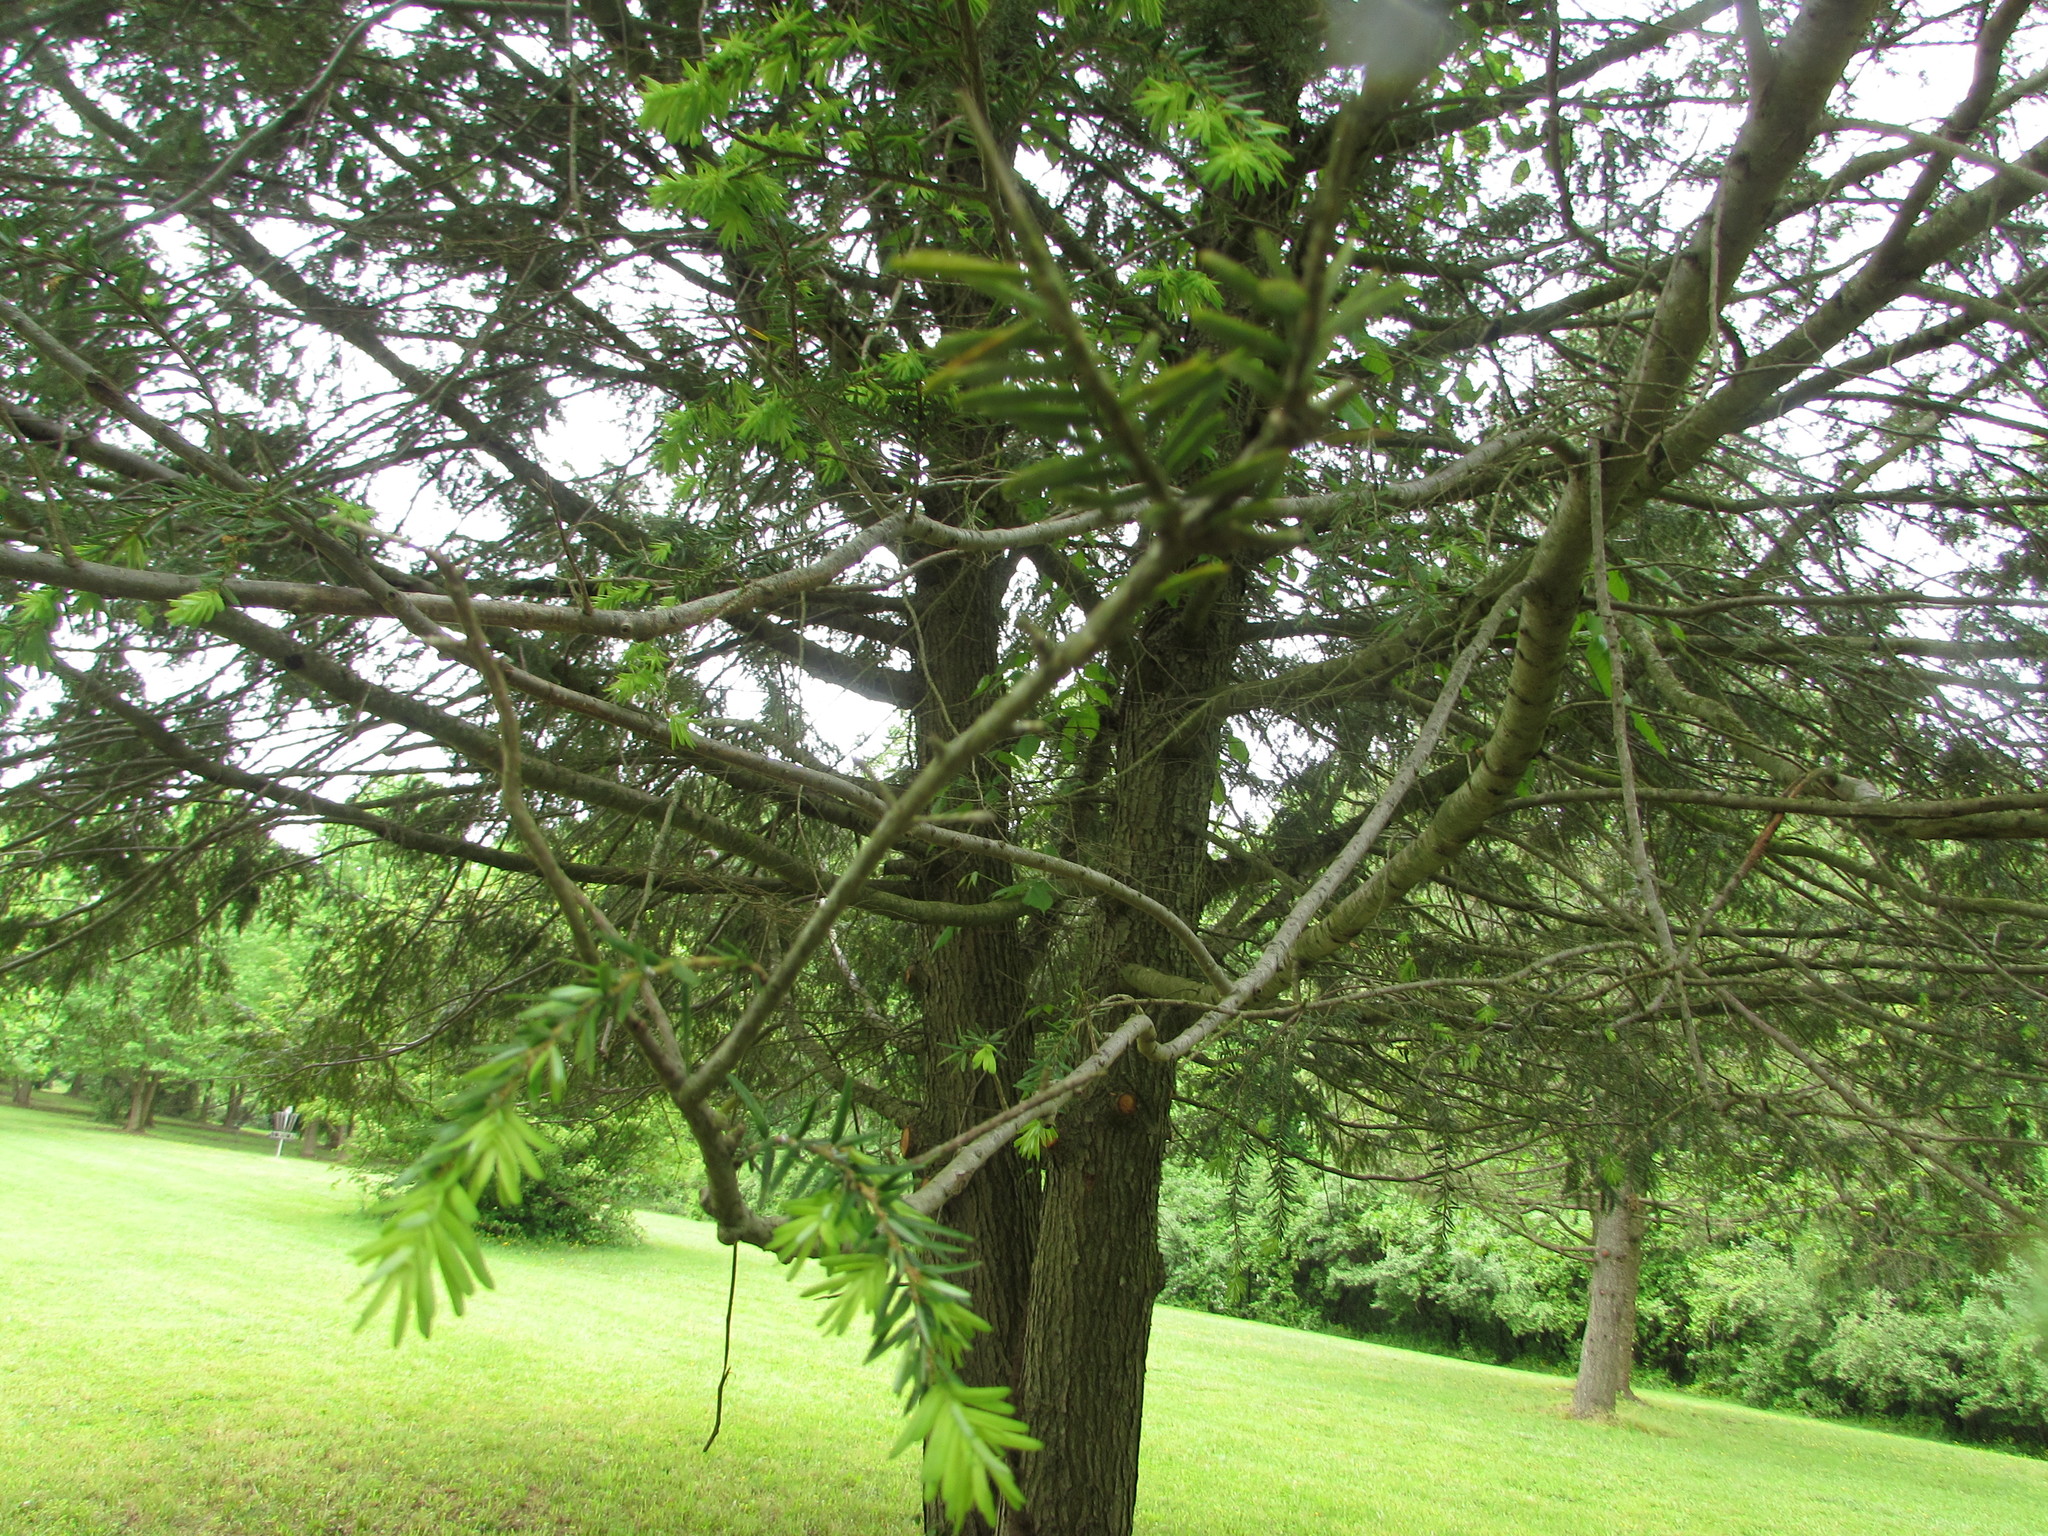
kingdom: Plantae
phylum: Tracheophyta
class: Pinopsida
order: Pinales
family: Pinaceae
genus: Tsuga
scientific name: Tsuga canadensis
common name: Eastern hemlock
